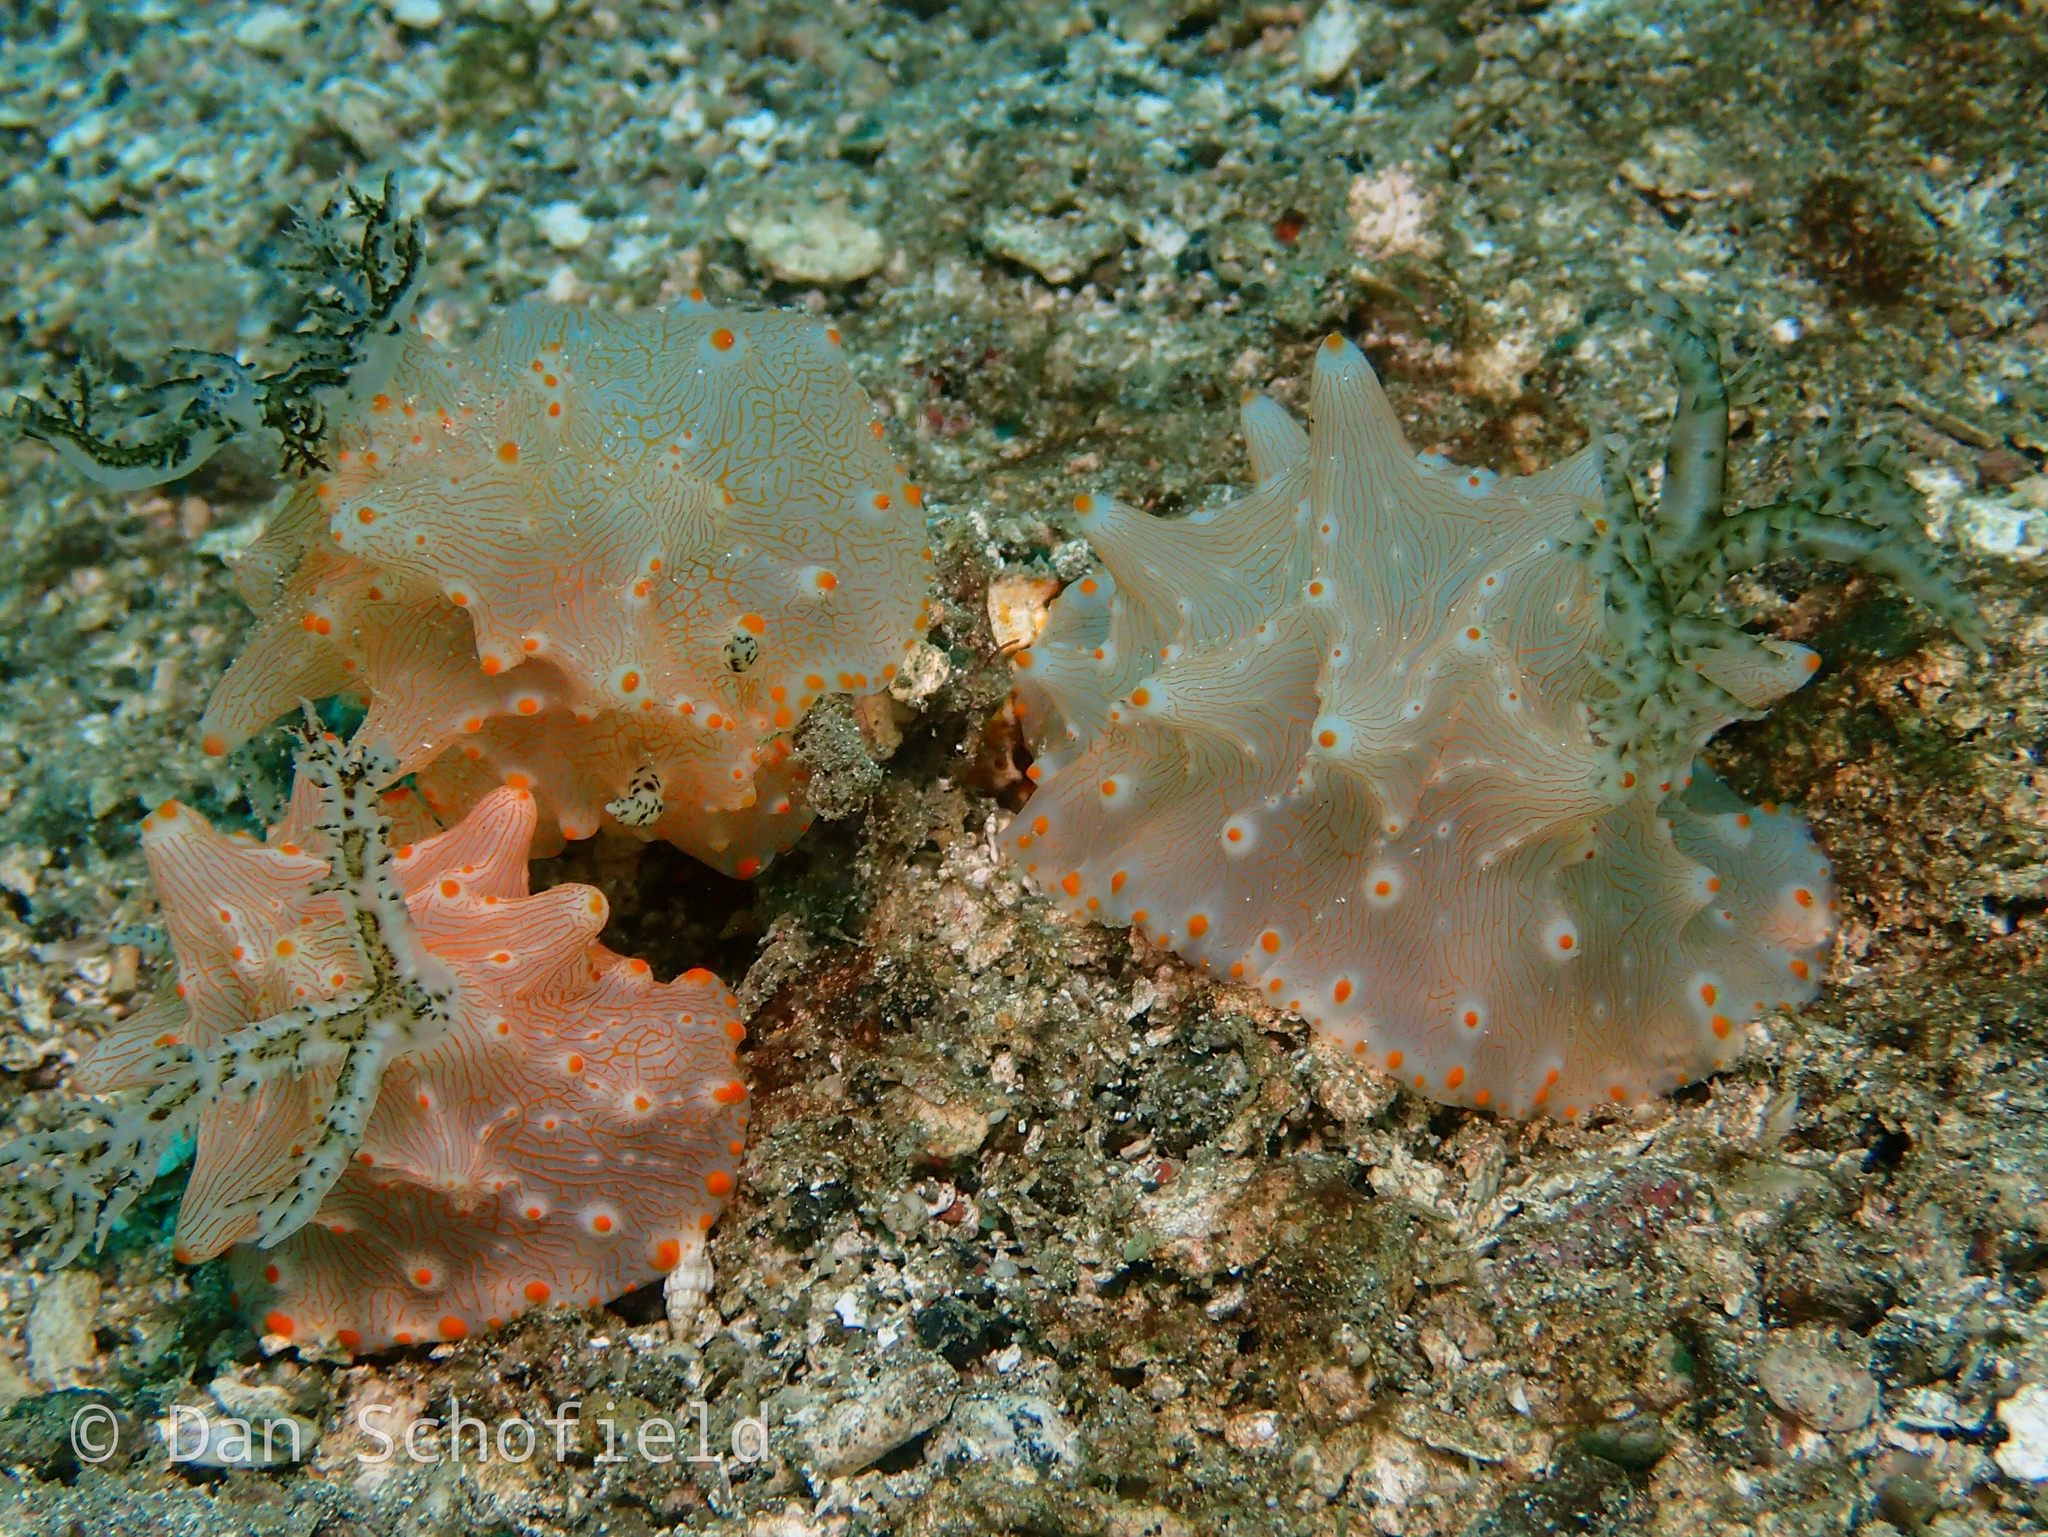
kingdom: Animalia
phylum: Mollusca
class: Gastropoda
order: Nudibranchia
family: Discodorididae
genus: Halgerda
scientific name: Halgerda batangas
